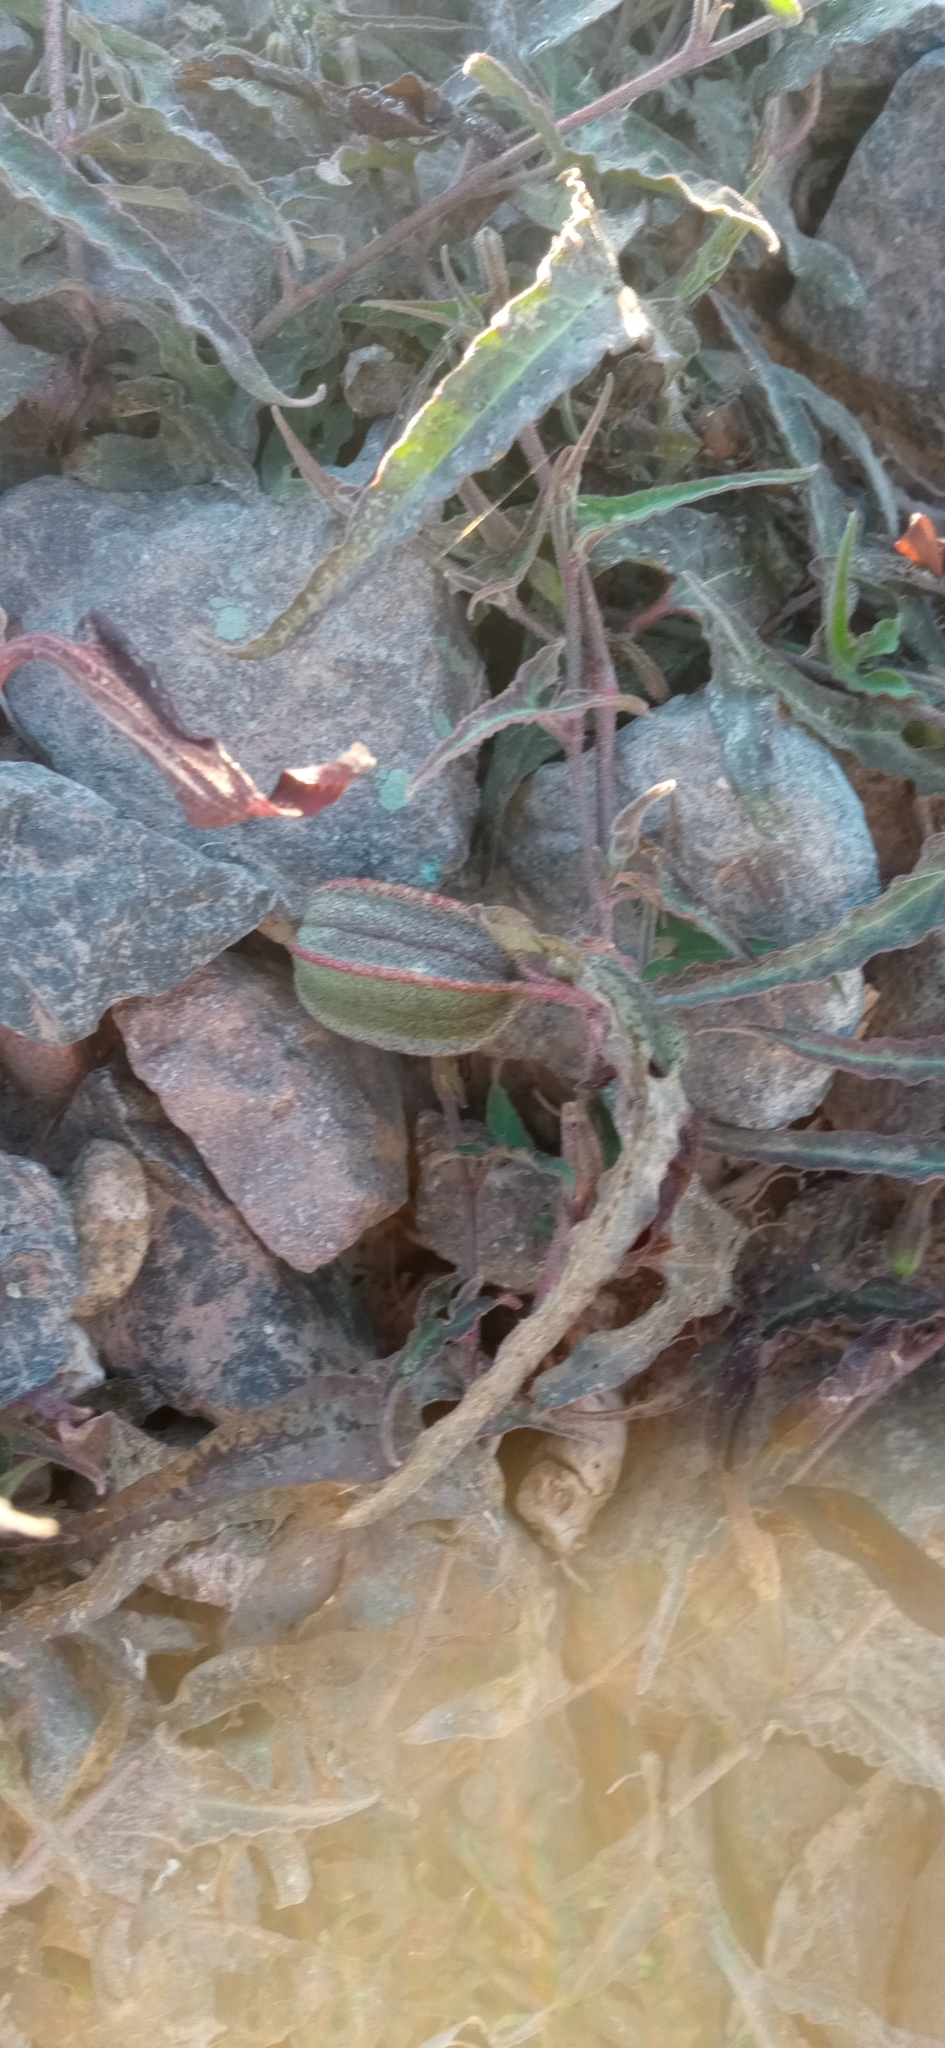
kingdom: Plantae
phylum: Tracheophyta
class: Magnoliopsida
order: Piperales
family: Aristolochiaceae
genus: Aristolochia
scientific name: Aristolochia watsonii
